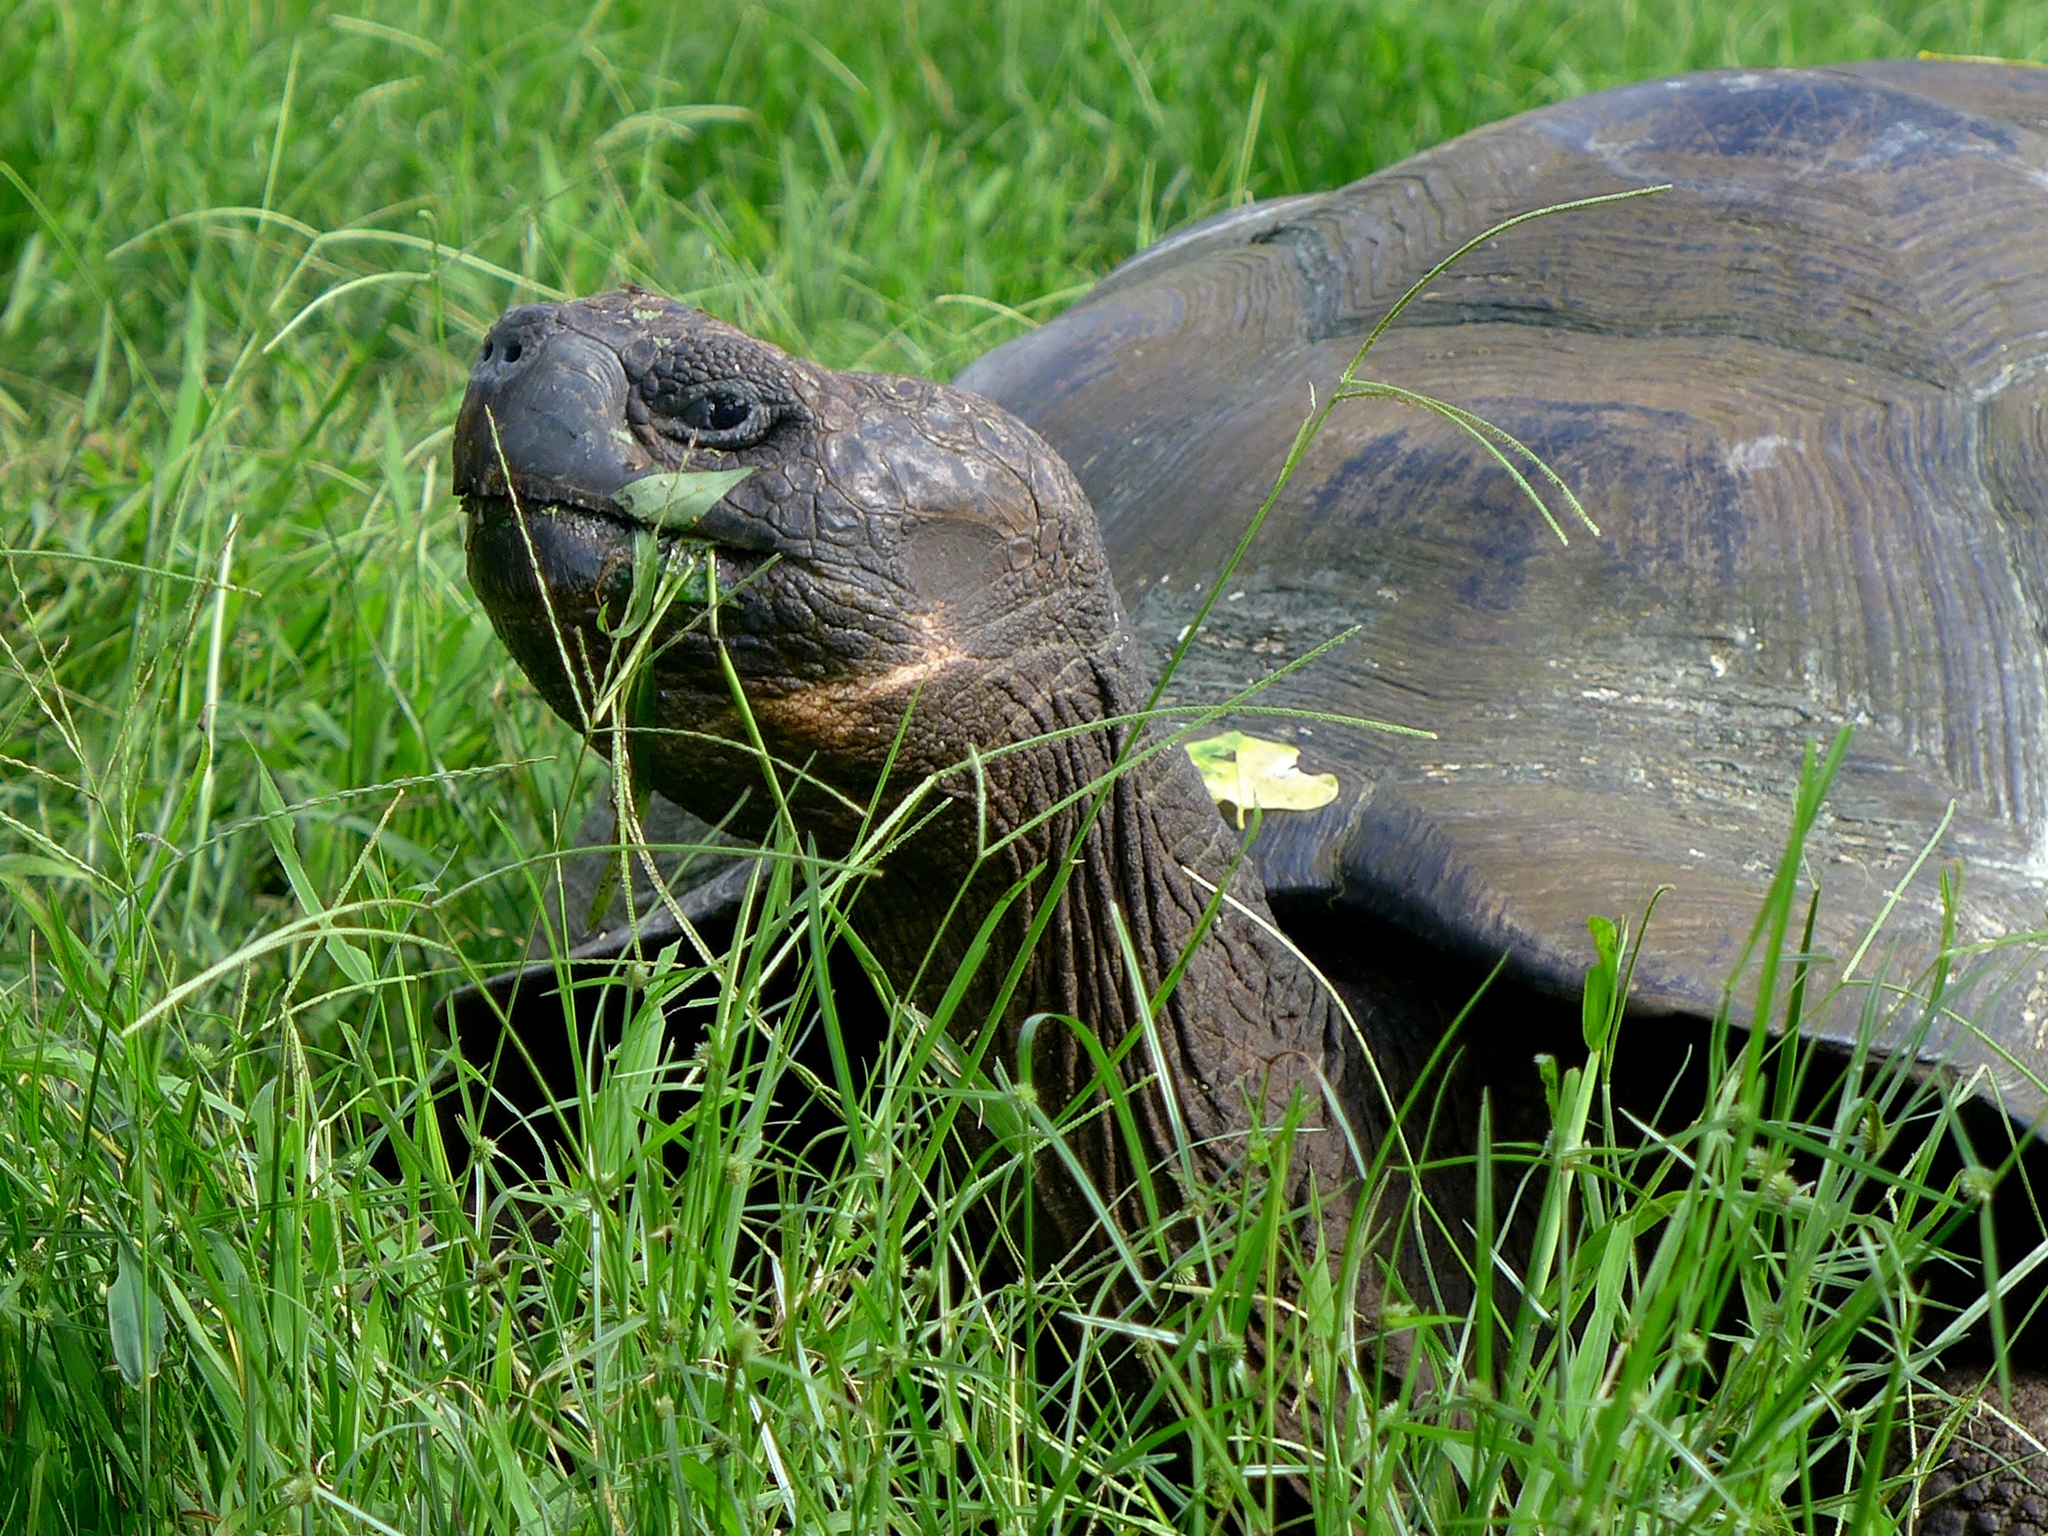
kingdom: Animalia
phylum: Chordata
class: Testudines
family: Testudinidae
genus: Chelonoidis
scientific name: Chelonoidis porteri
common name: Indefatigable island giant tortoise
